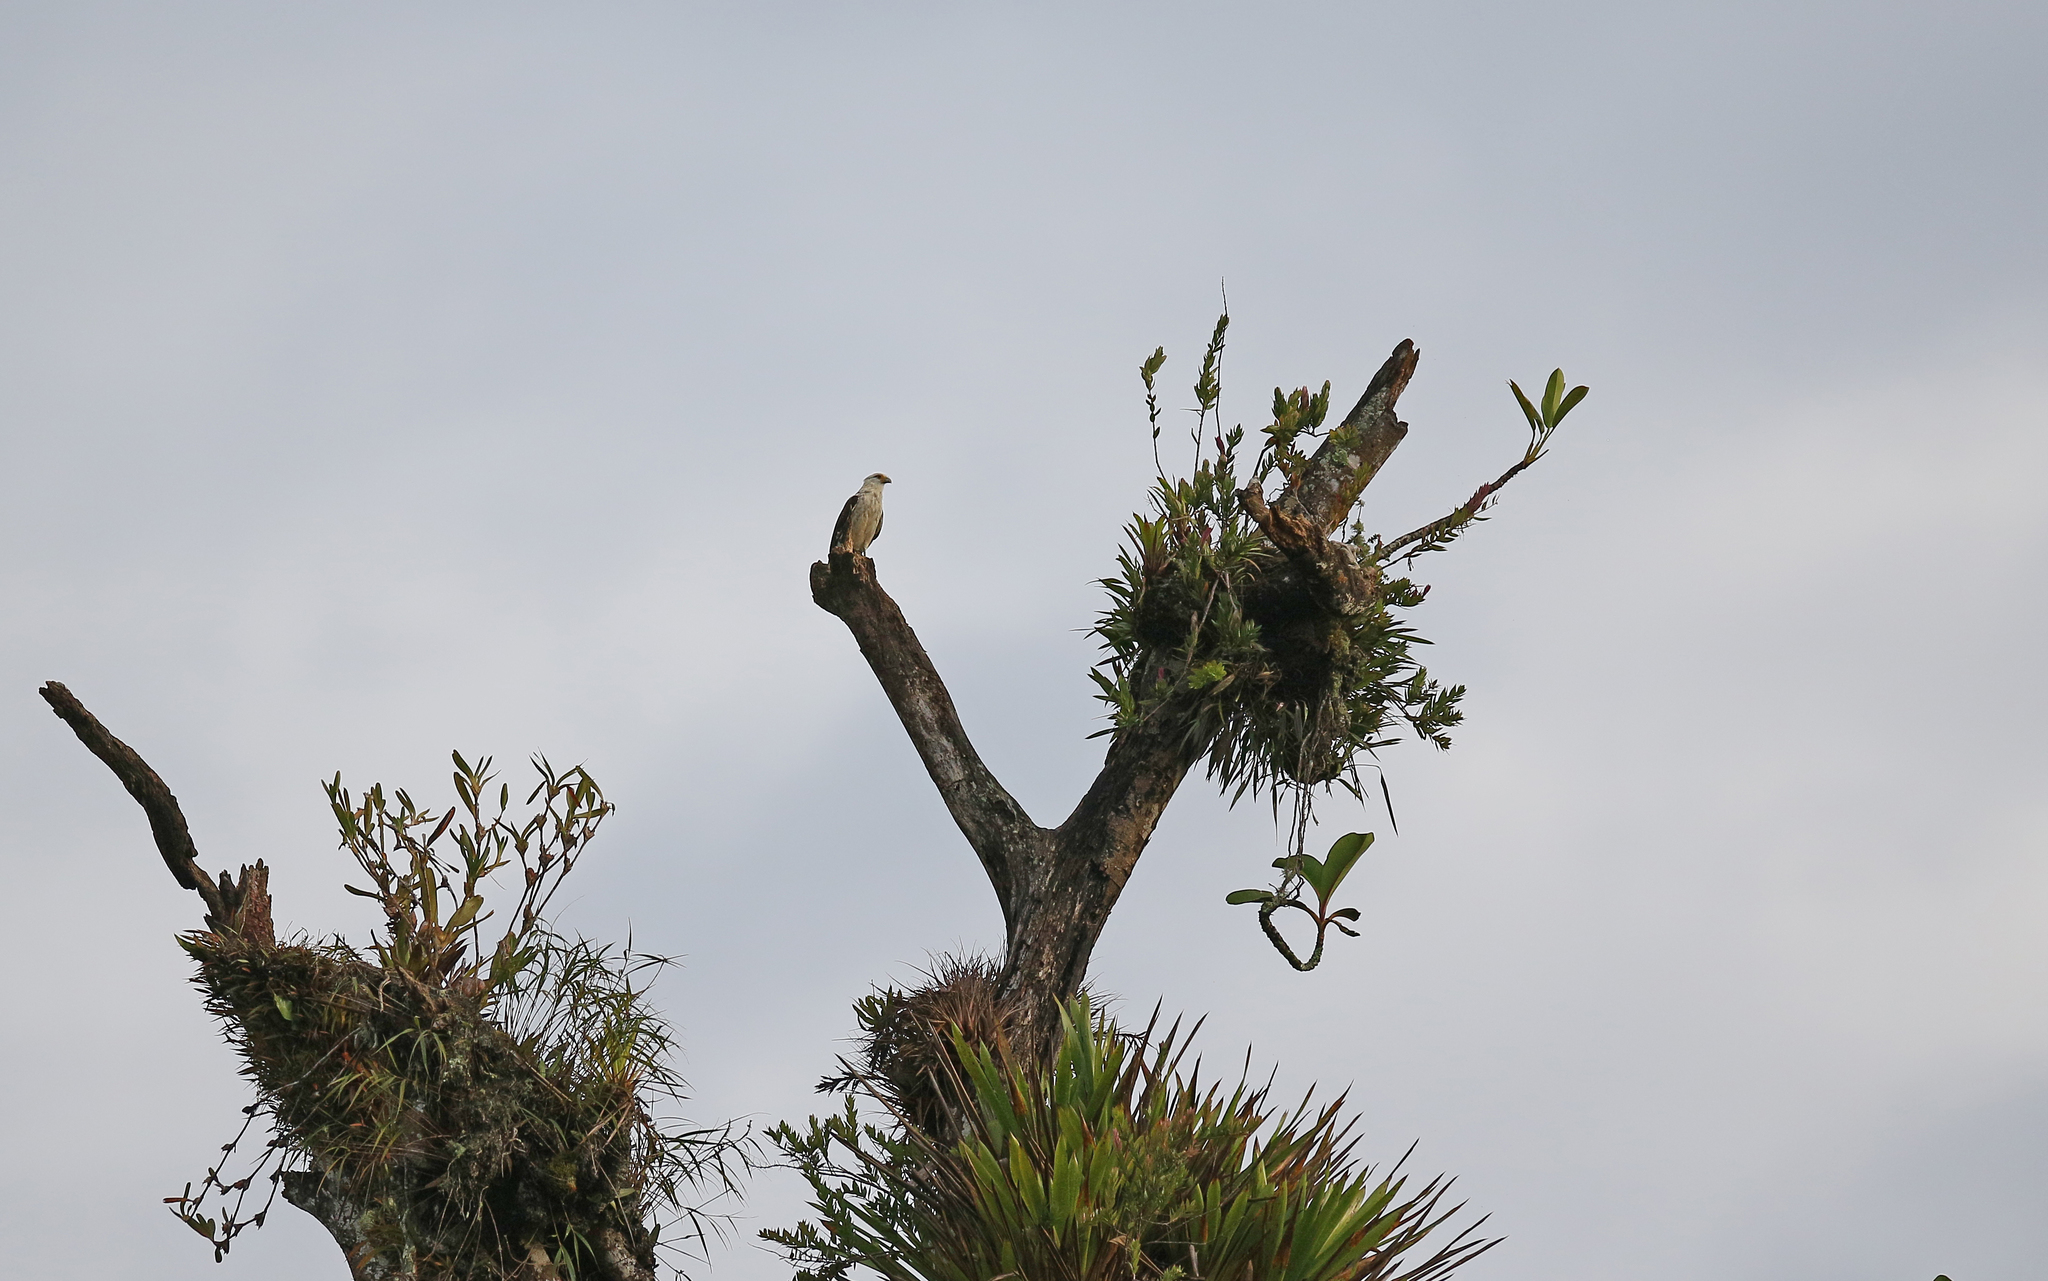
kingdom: Animalia
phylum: Chordata
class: Aves
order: Falconiformes
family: Falconidae
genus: Daptrius
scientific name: Daptrius
